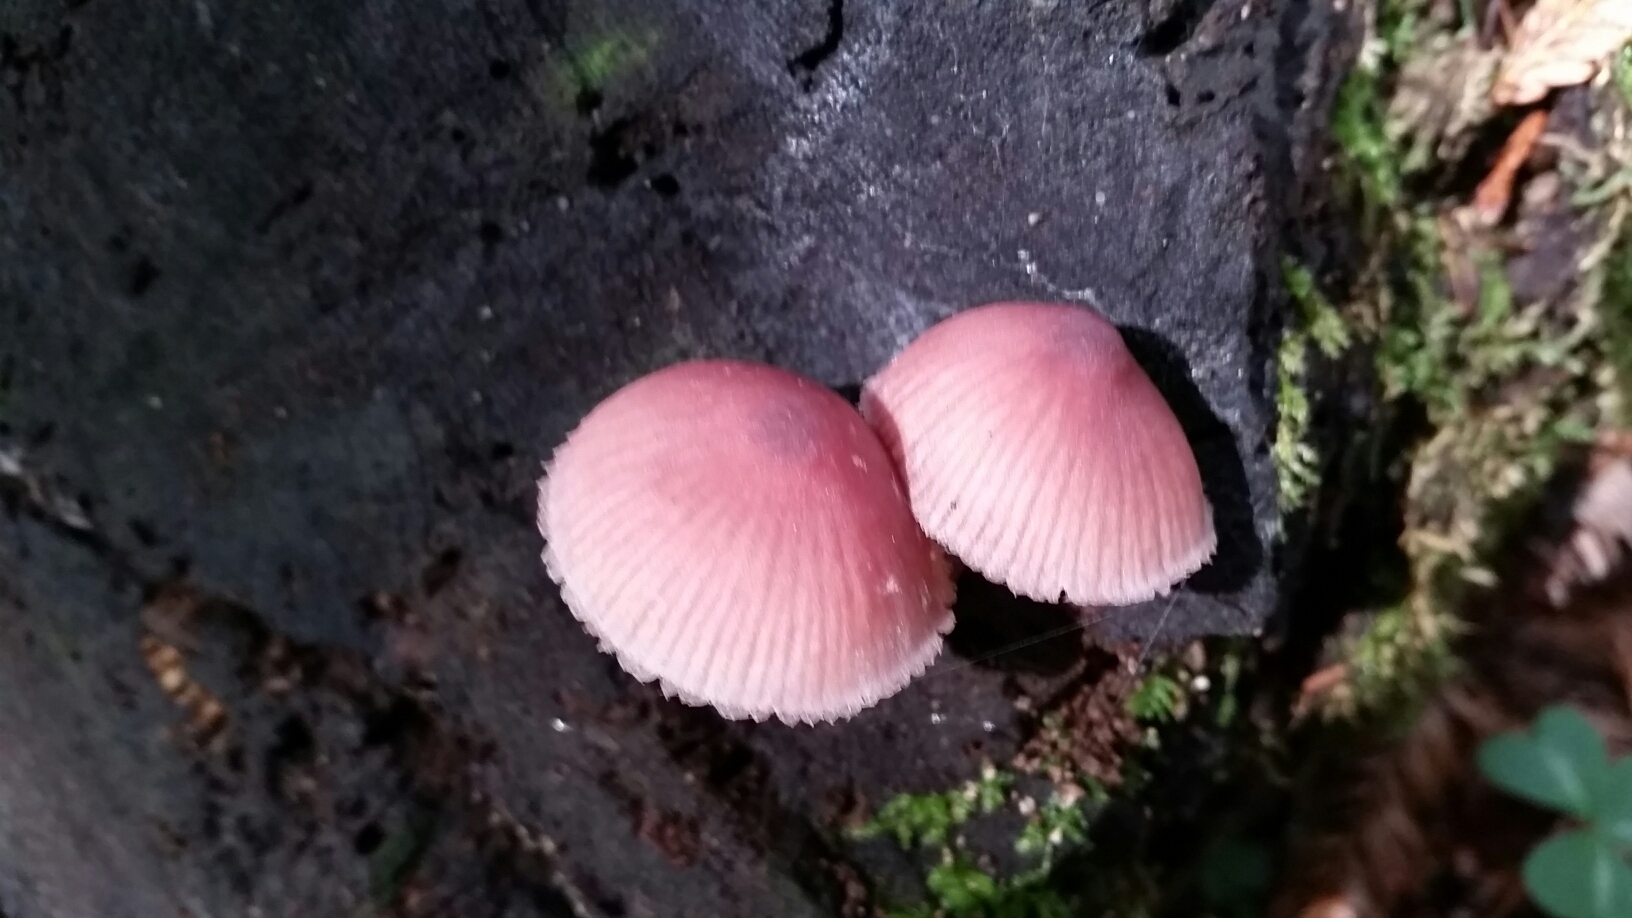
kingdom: Fungi
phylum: Basidiomycota
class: Agaricomycetes
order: Agaricales
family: Mycenaceae
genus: Mycena
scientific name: Mycena haematopus
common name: Burgundydrop bonnet
